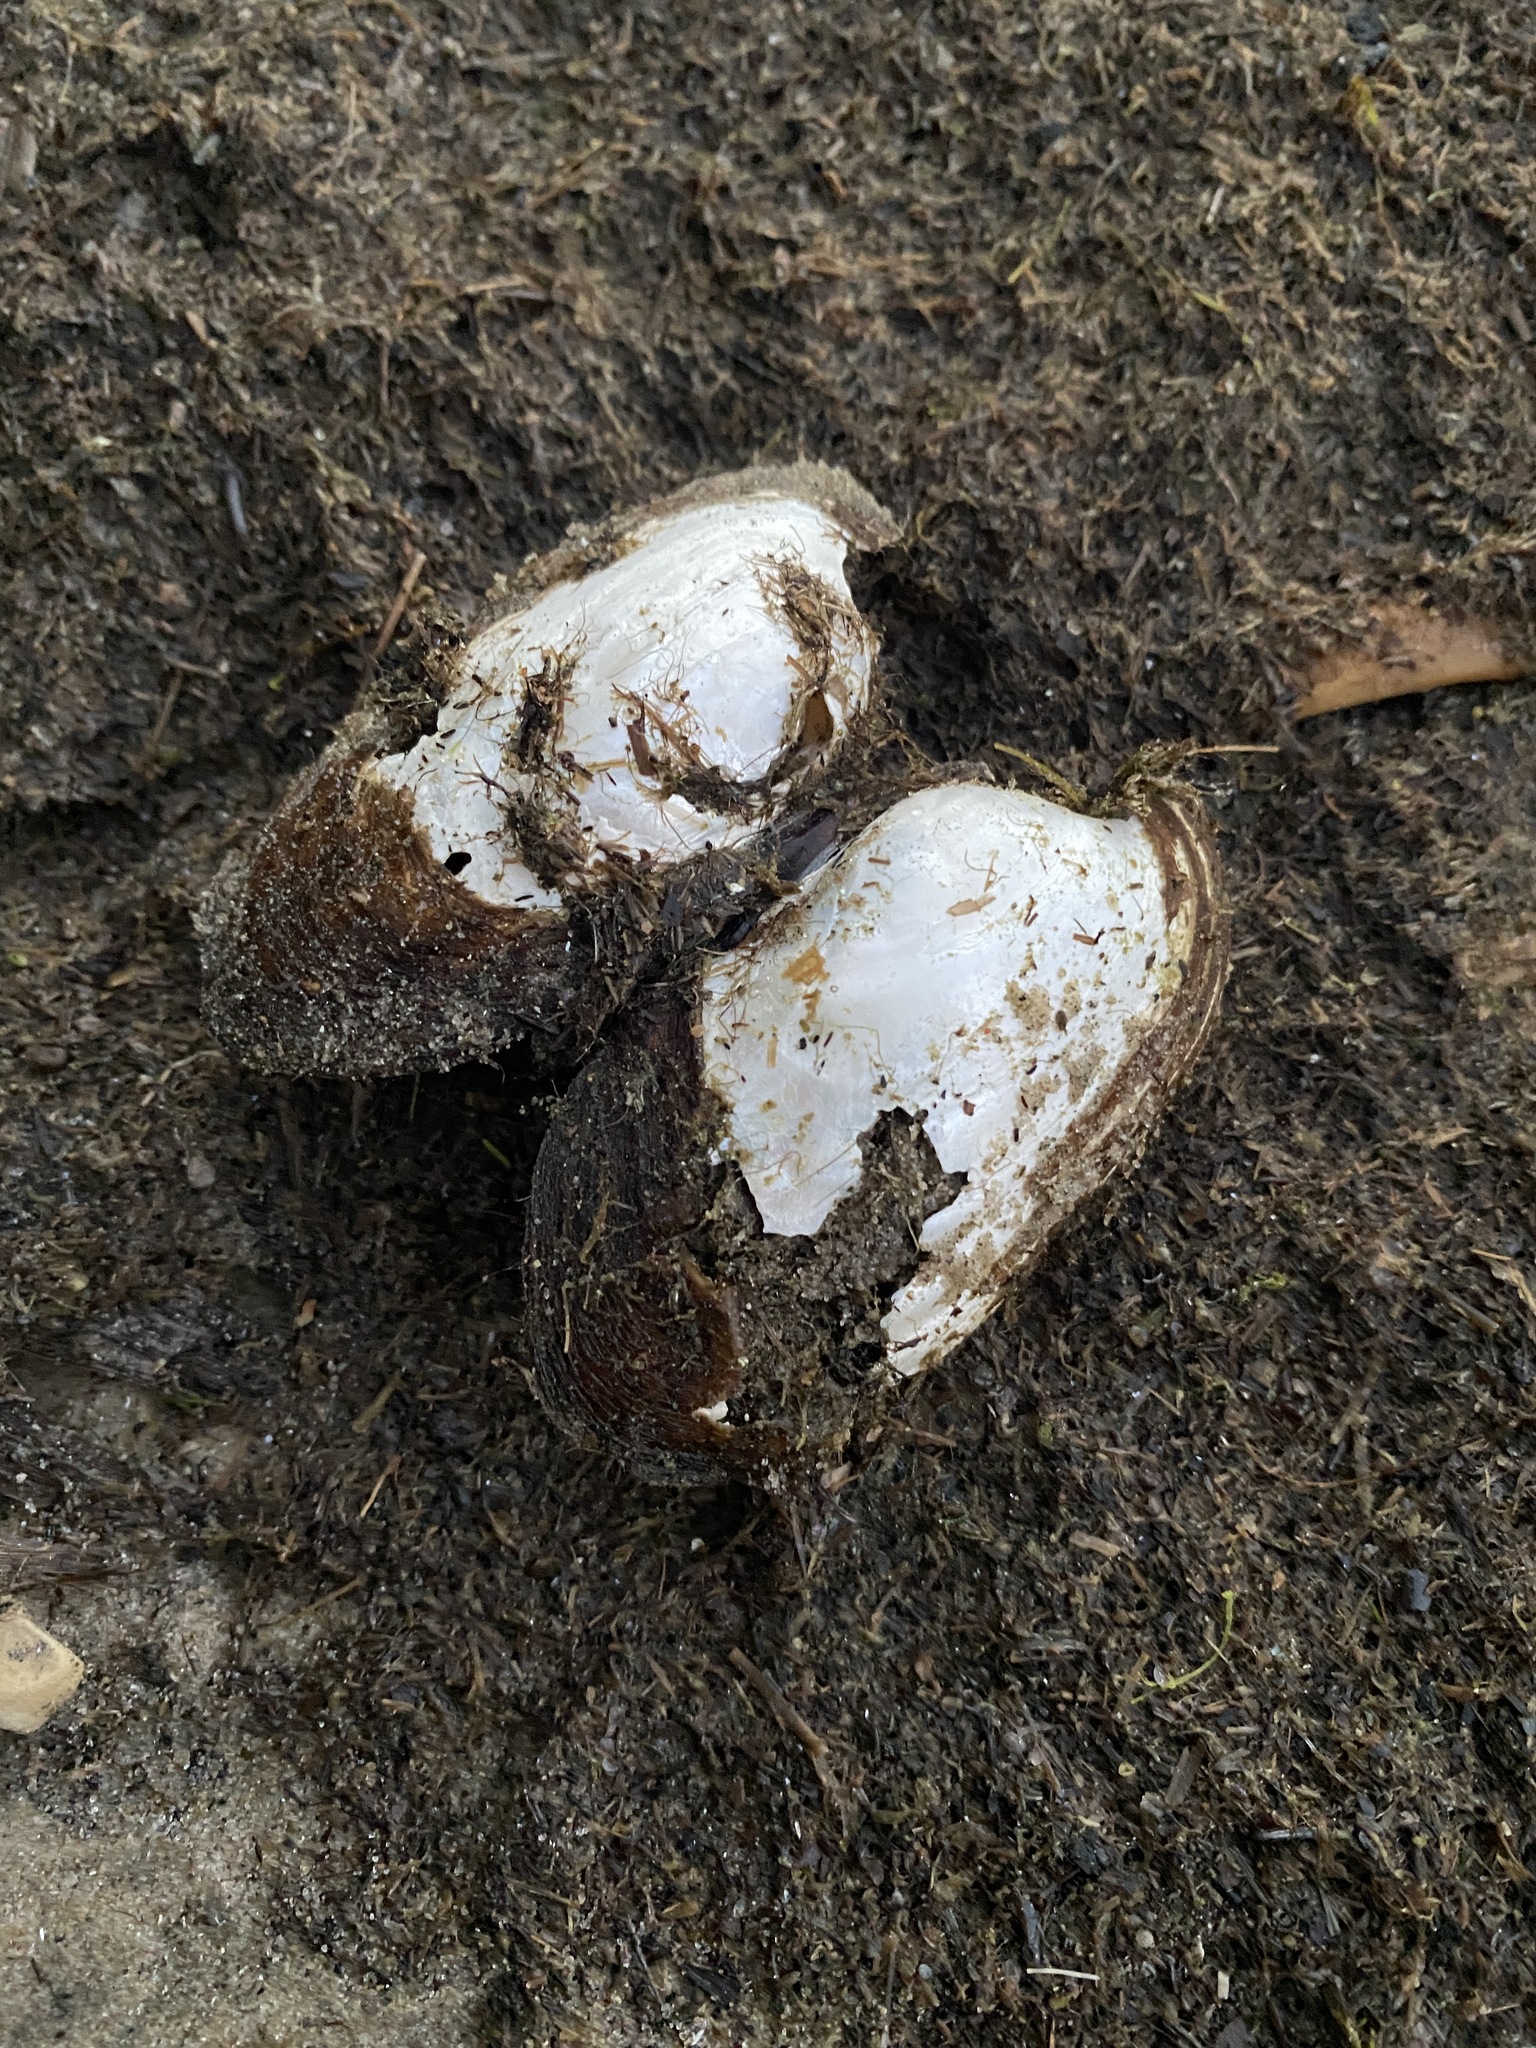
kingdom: Animalia
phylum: Mollusca
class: Bivalvia
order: Unionida
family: Unionidae
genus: Lampsilis
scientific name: Lampsilis siliquoidea
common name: Fatmucket
